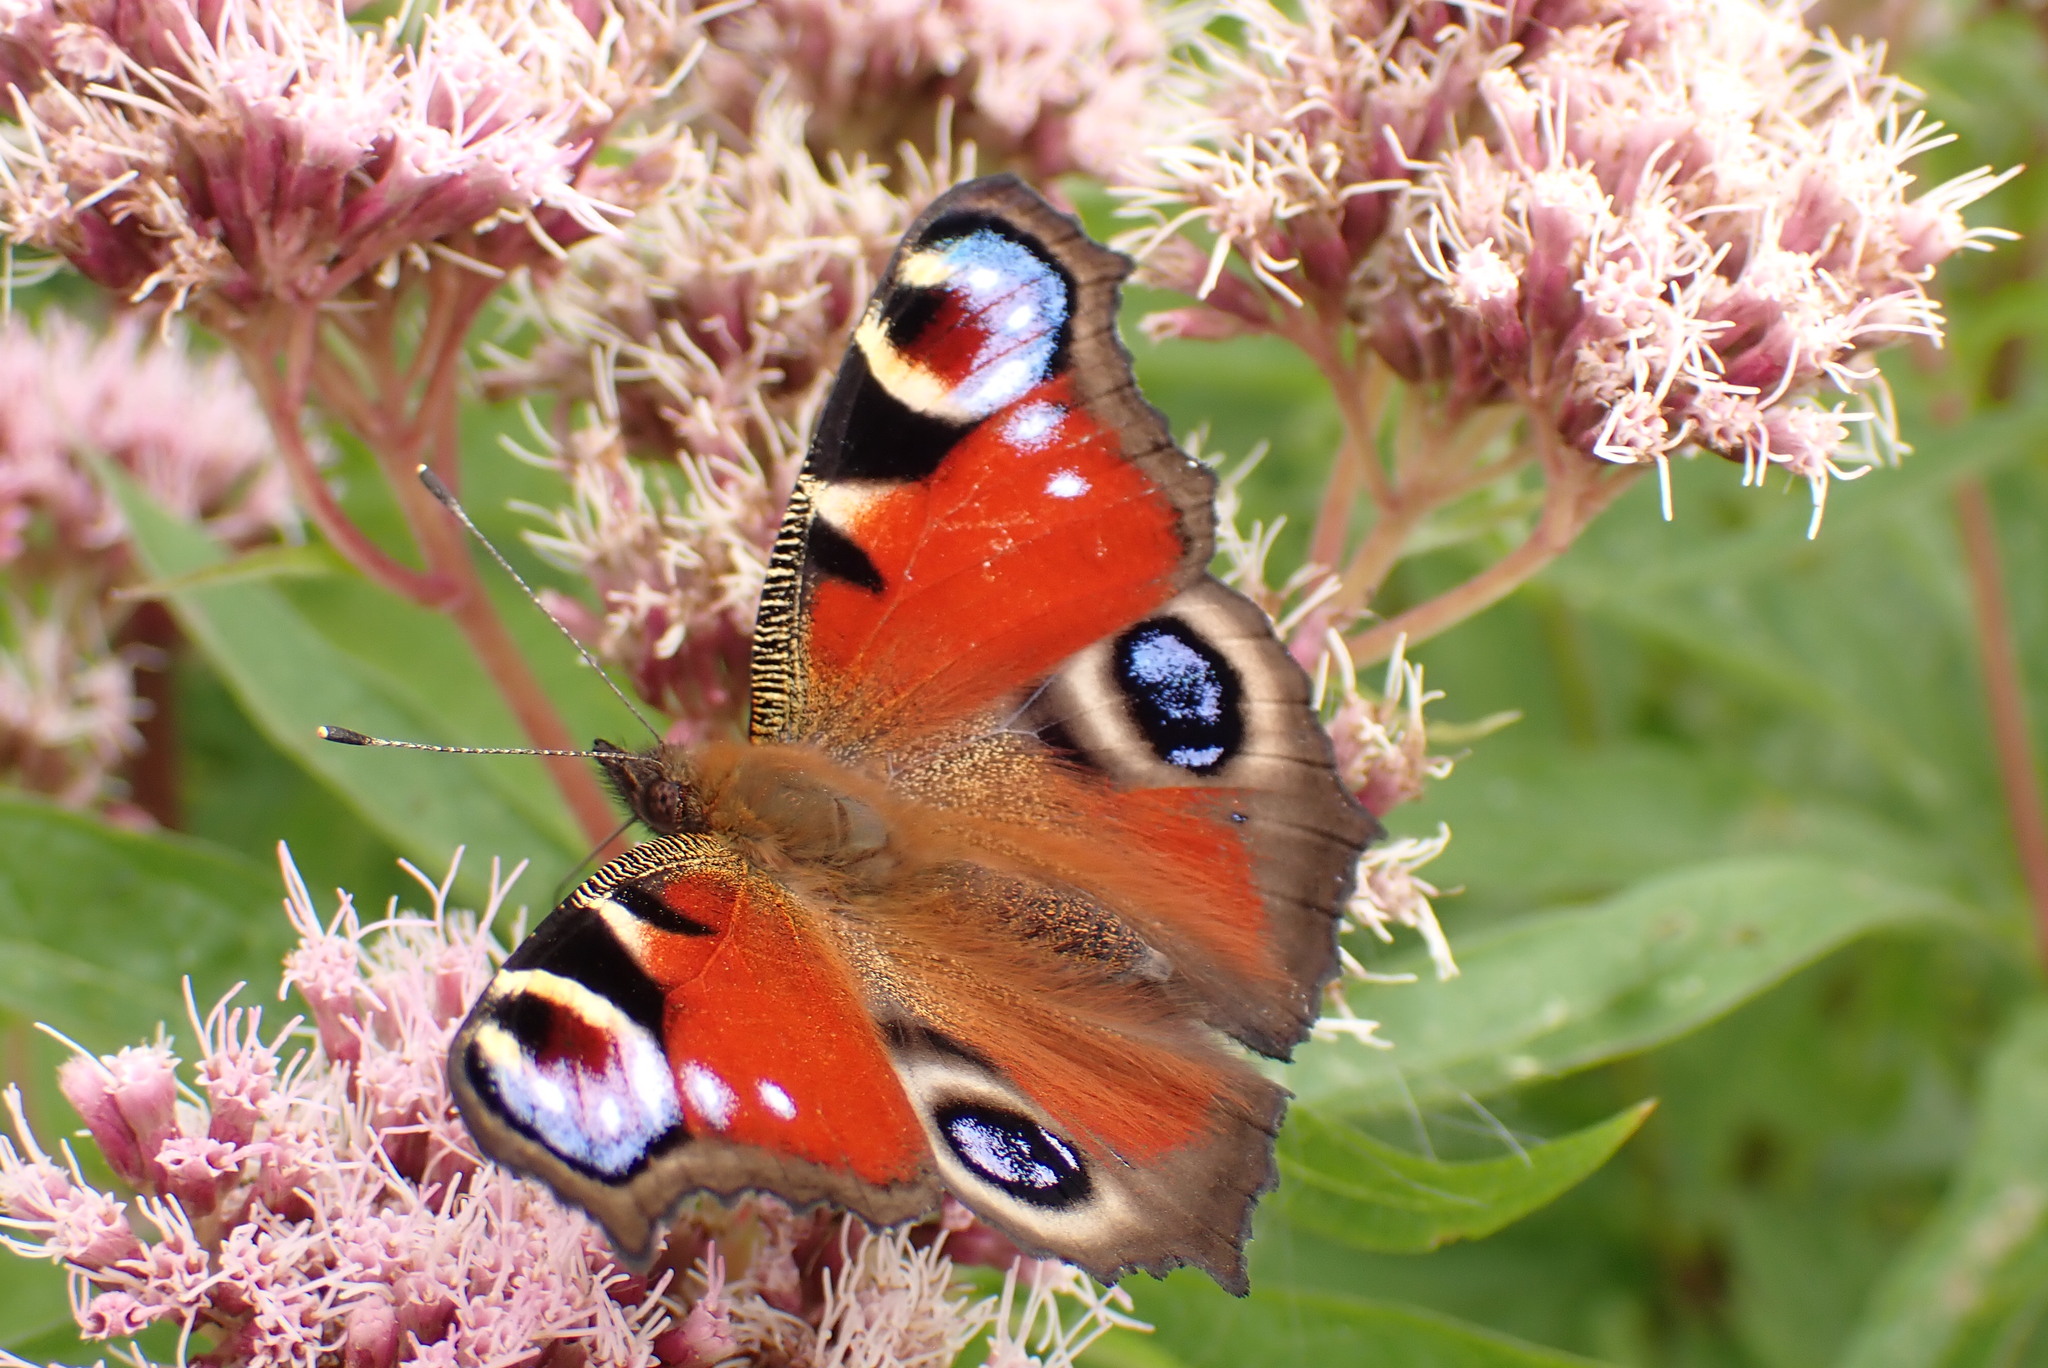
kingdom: Animalia
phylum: Arthropoda
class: Insecta
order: Lepidoptera
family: Nymphalidae
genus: Aglais
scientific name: Aglais io
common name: Peacock
